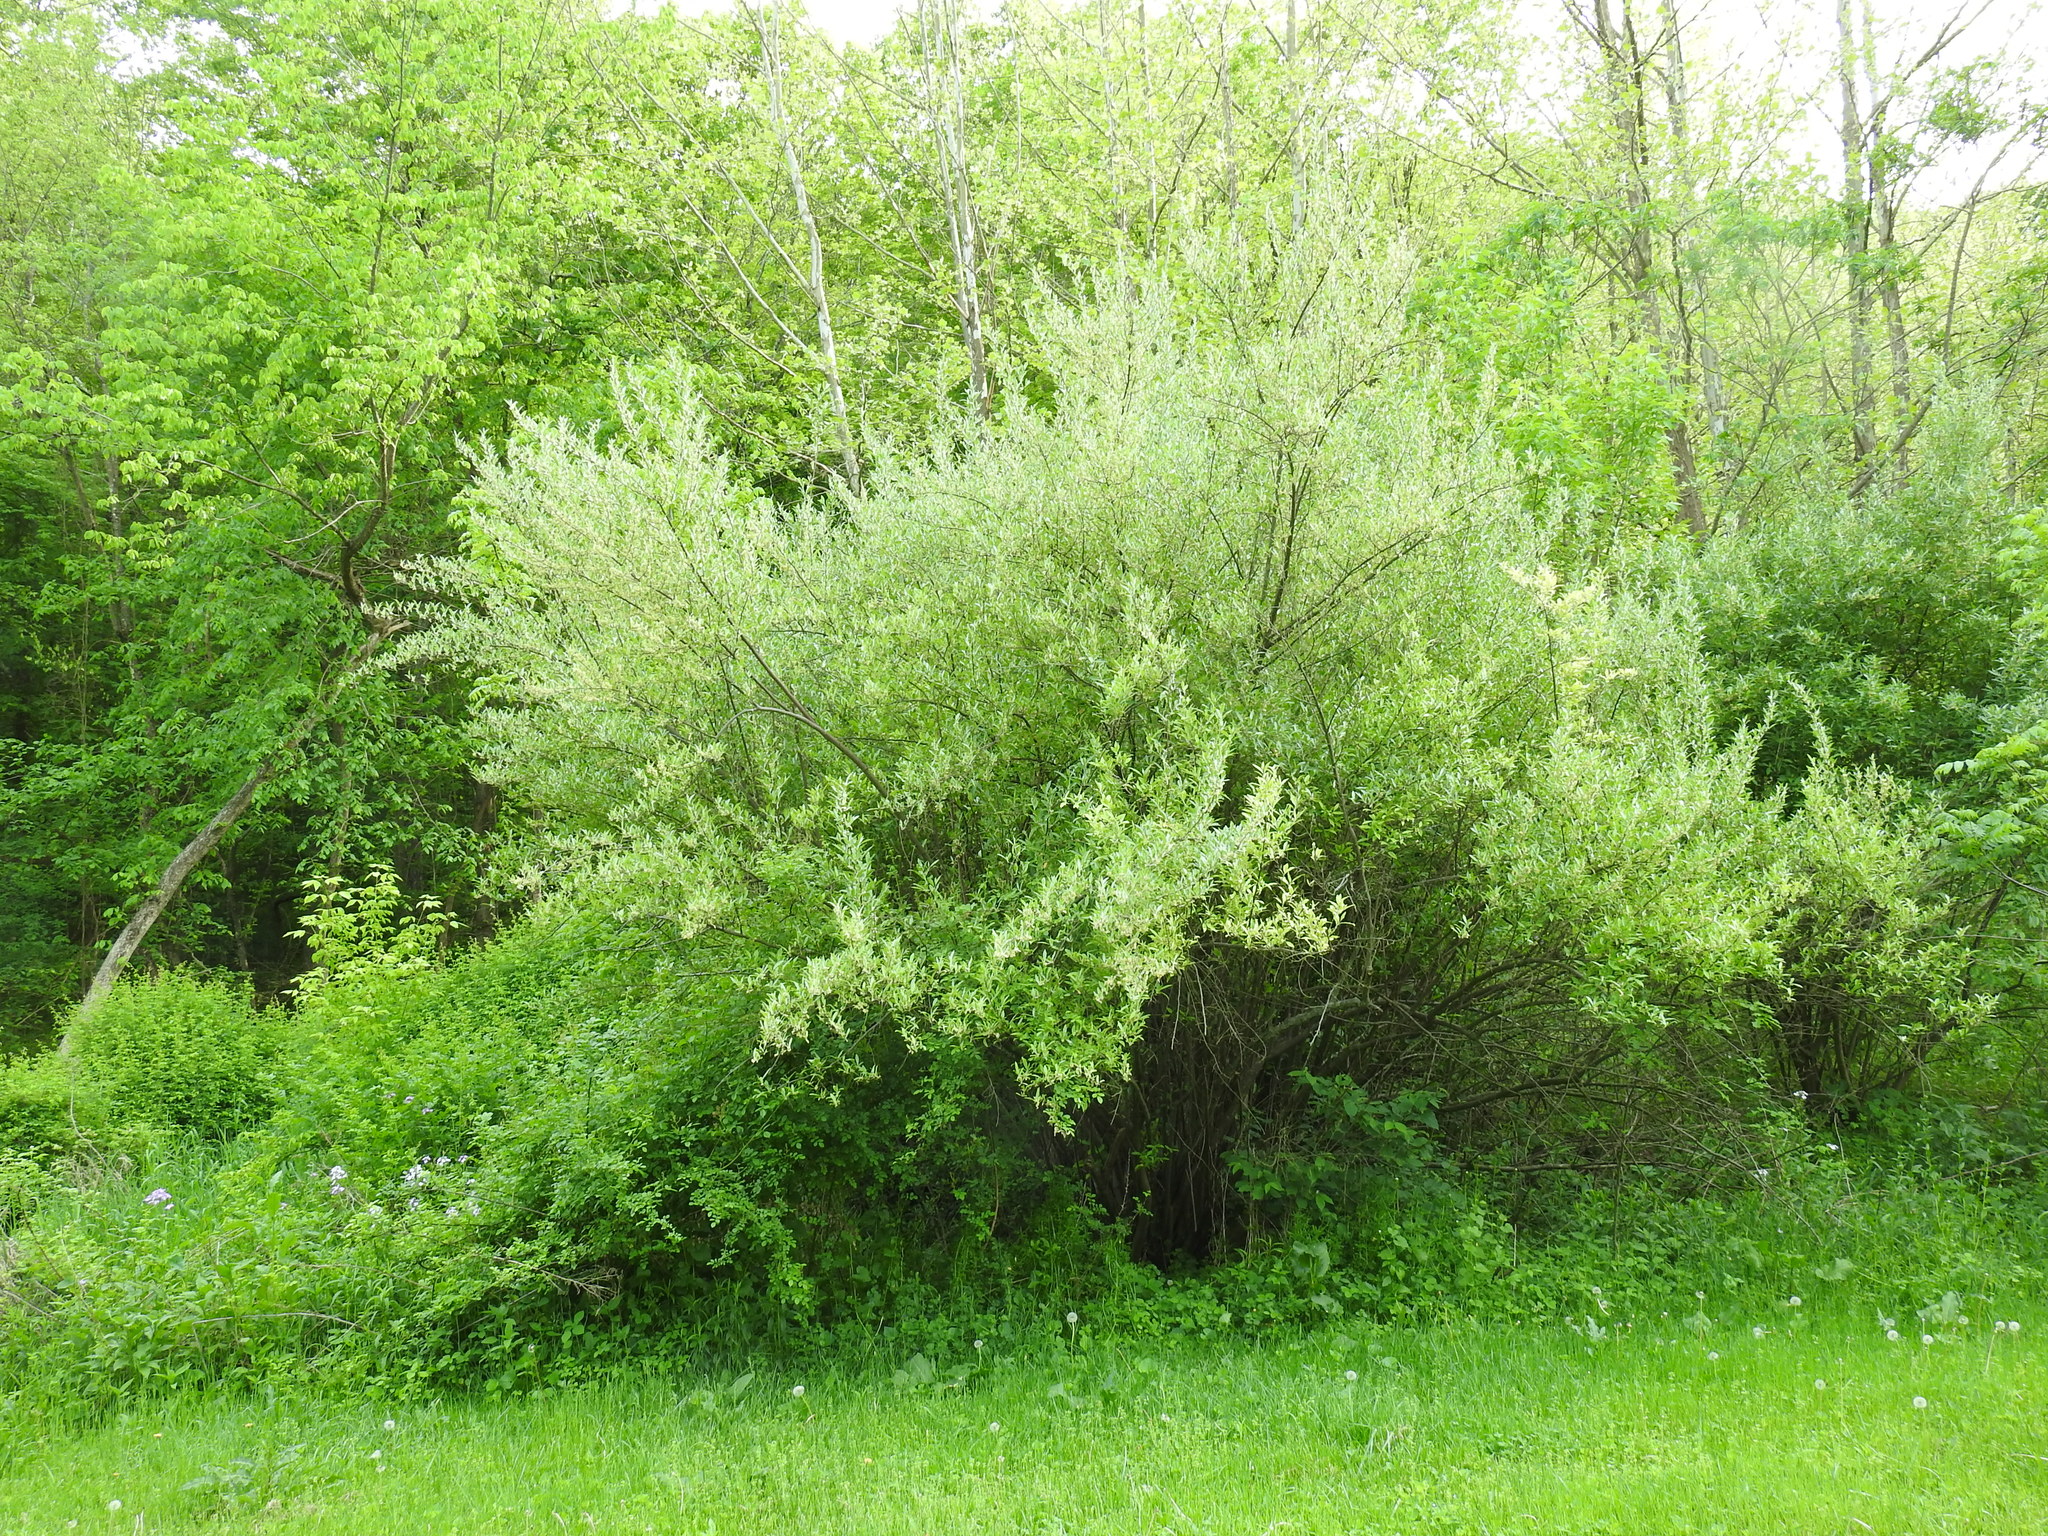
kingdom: Plantae
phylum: Tracheophyta
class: Magnoliopsida
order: Rosales
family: Elaeagnaceae
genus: Elaeagnus
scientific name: Elaeagnus umbellata
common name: Autumn olive
